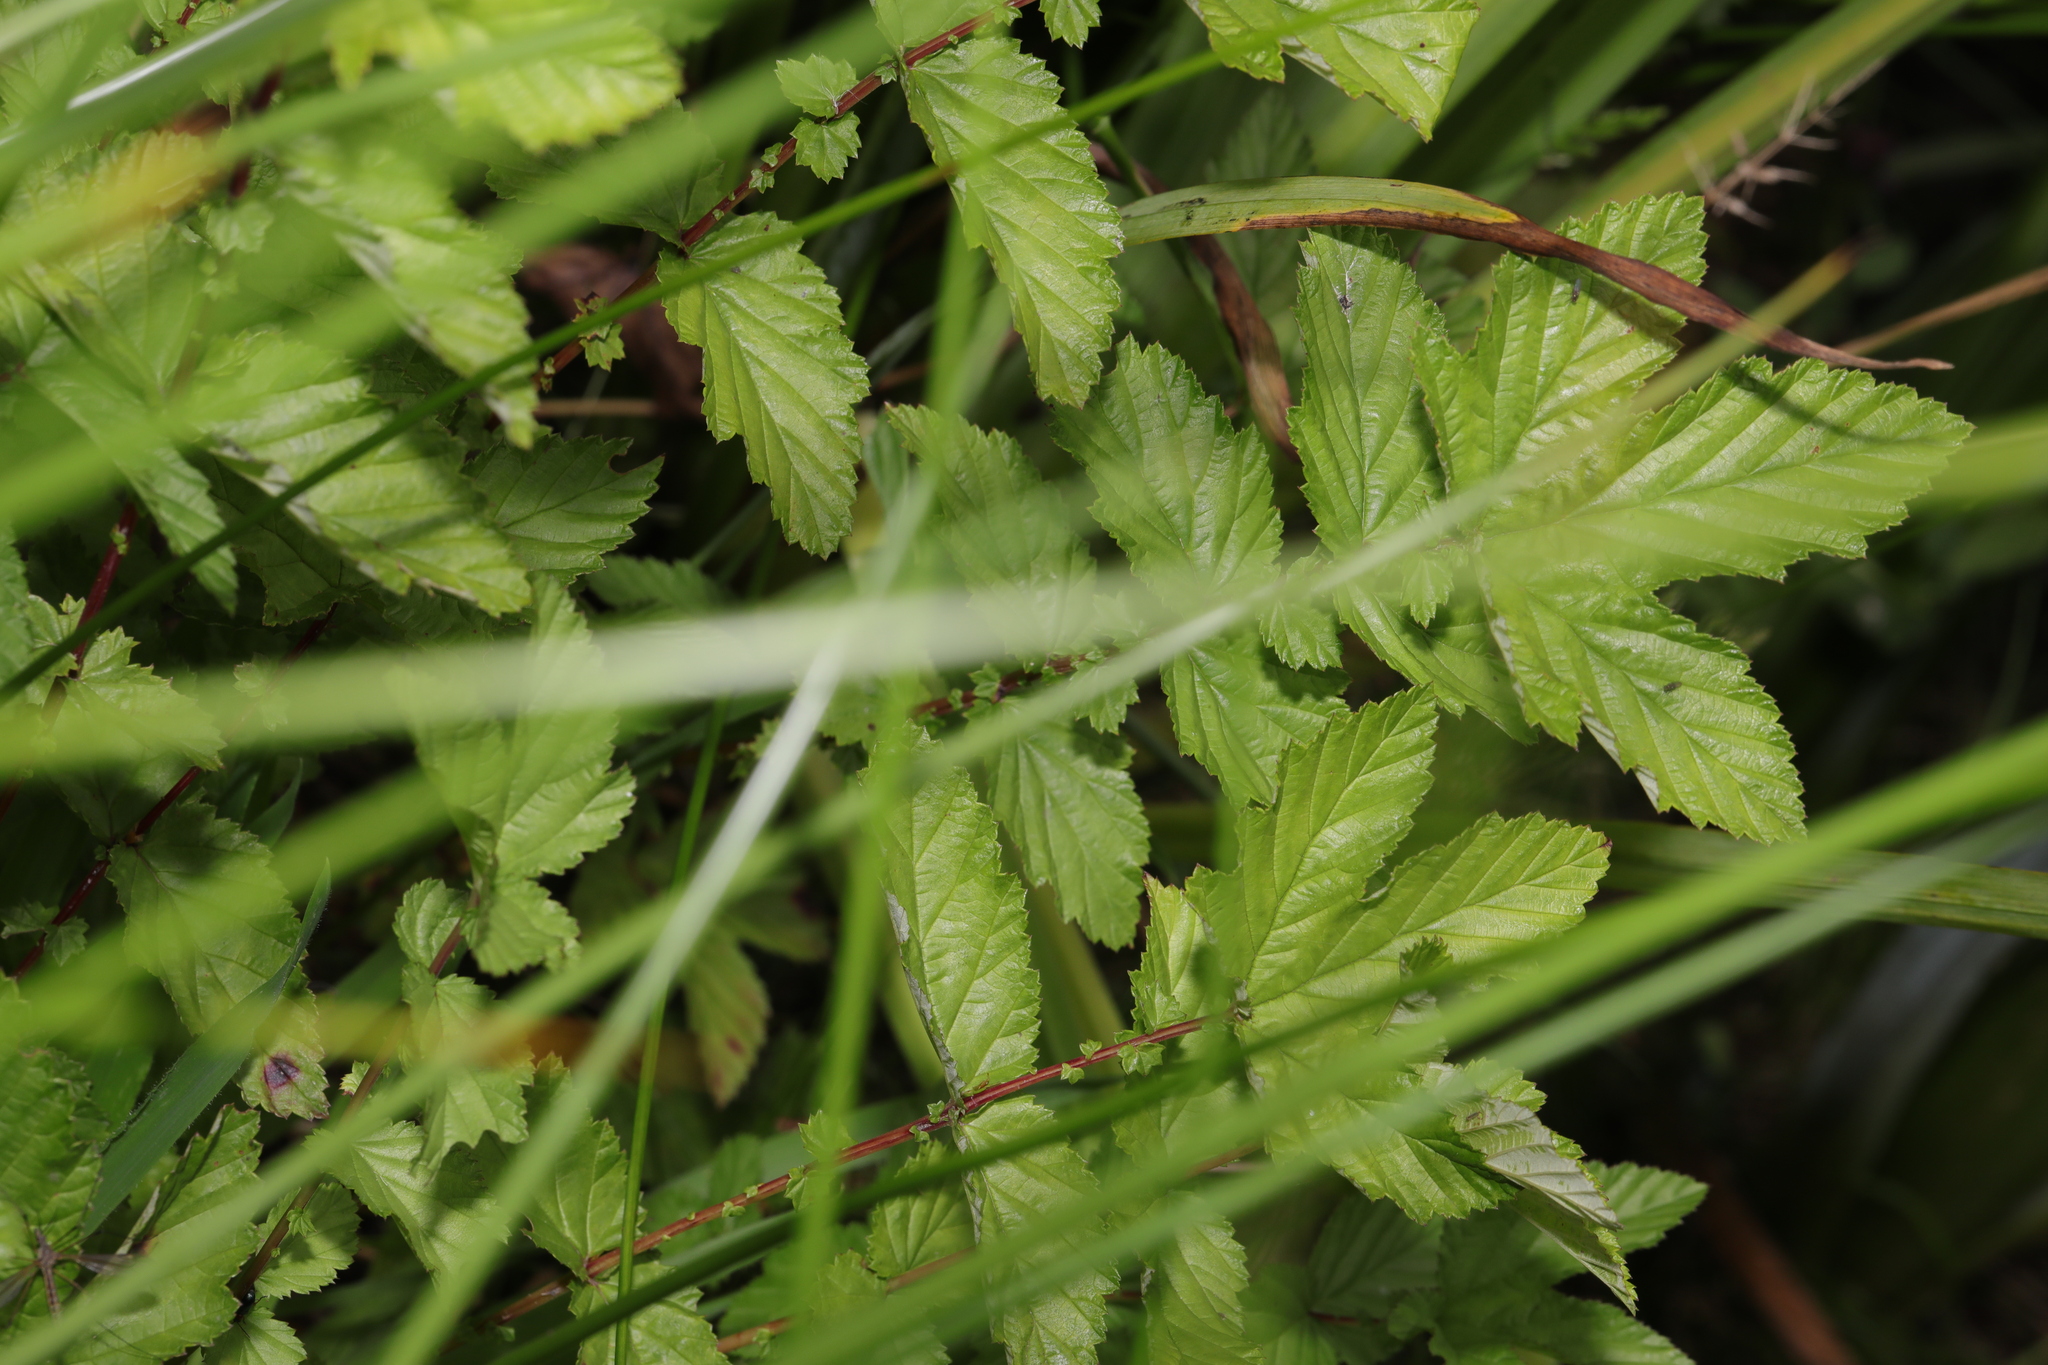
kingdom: Plantae
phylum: Tracheophyta
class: Magnoliopsida
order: Rosales
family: Rosaceae
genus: Filipendula
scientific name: Filipendula ulmaria
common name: Meadowsweet
